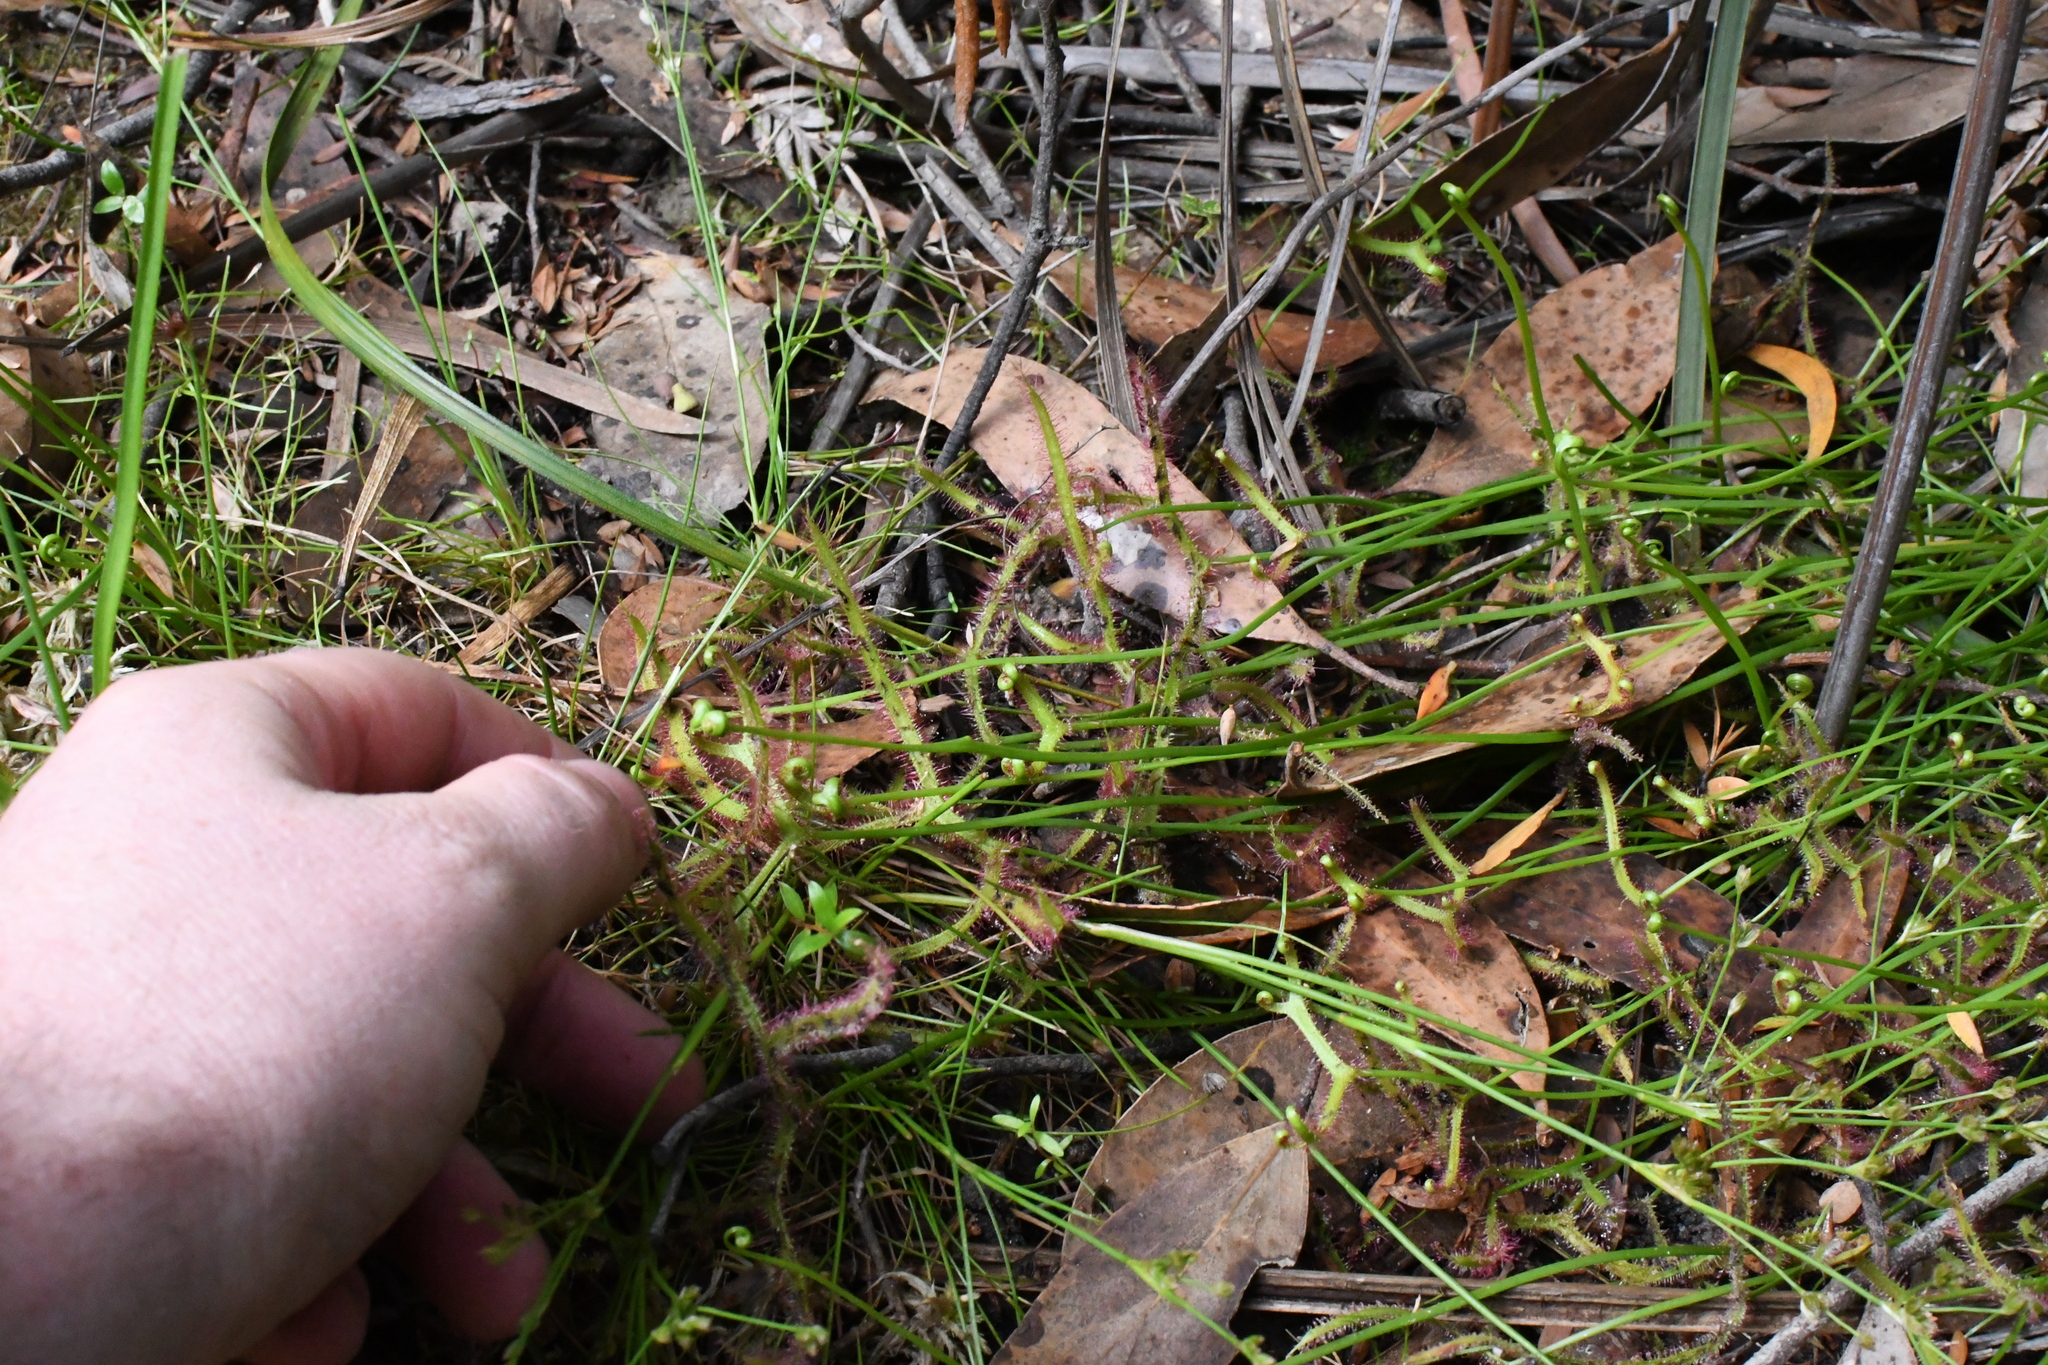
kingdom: Plantae
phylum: Tracheophyta
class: Magnoliopsida
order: Caryophyllales
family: Droseraceae
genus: Drosera
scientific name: Drosera binata
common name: Forked sundew
